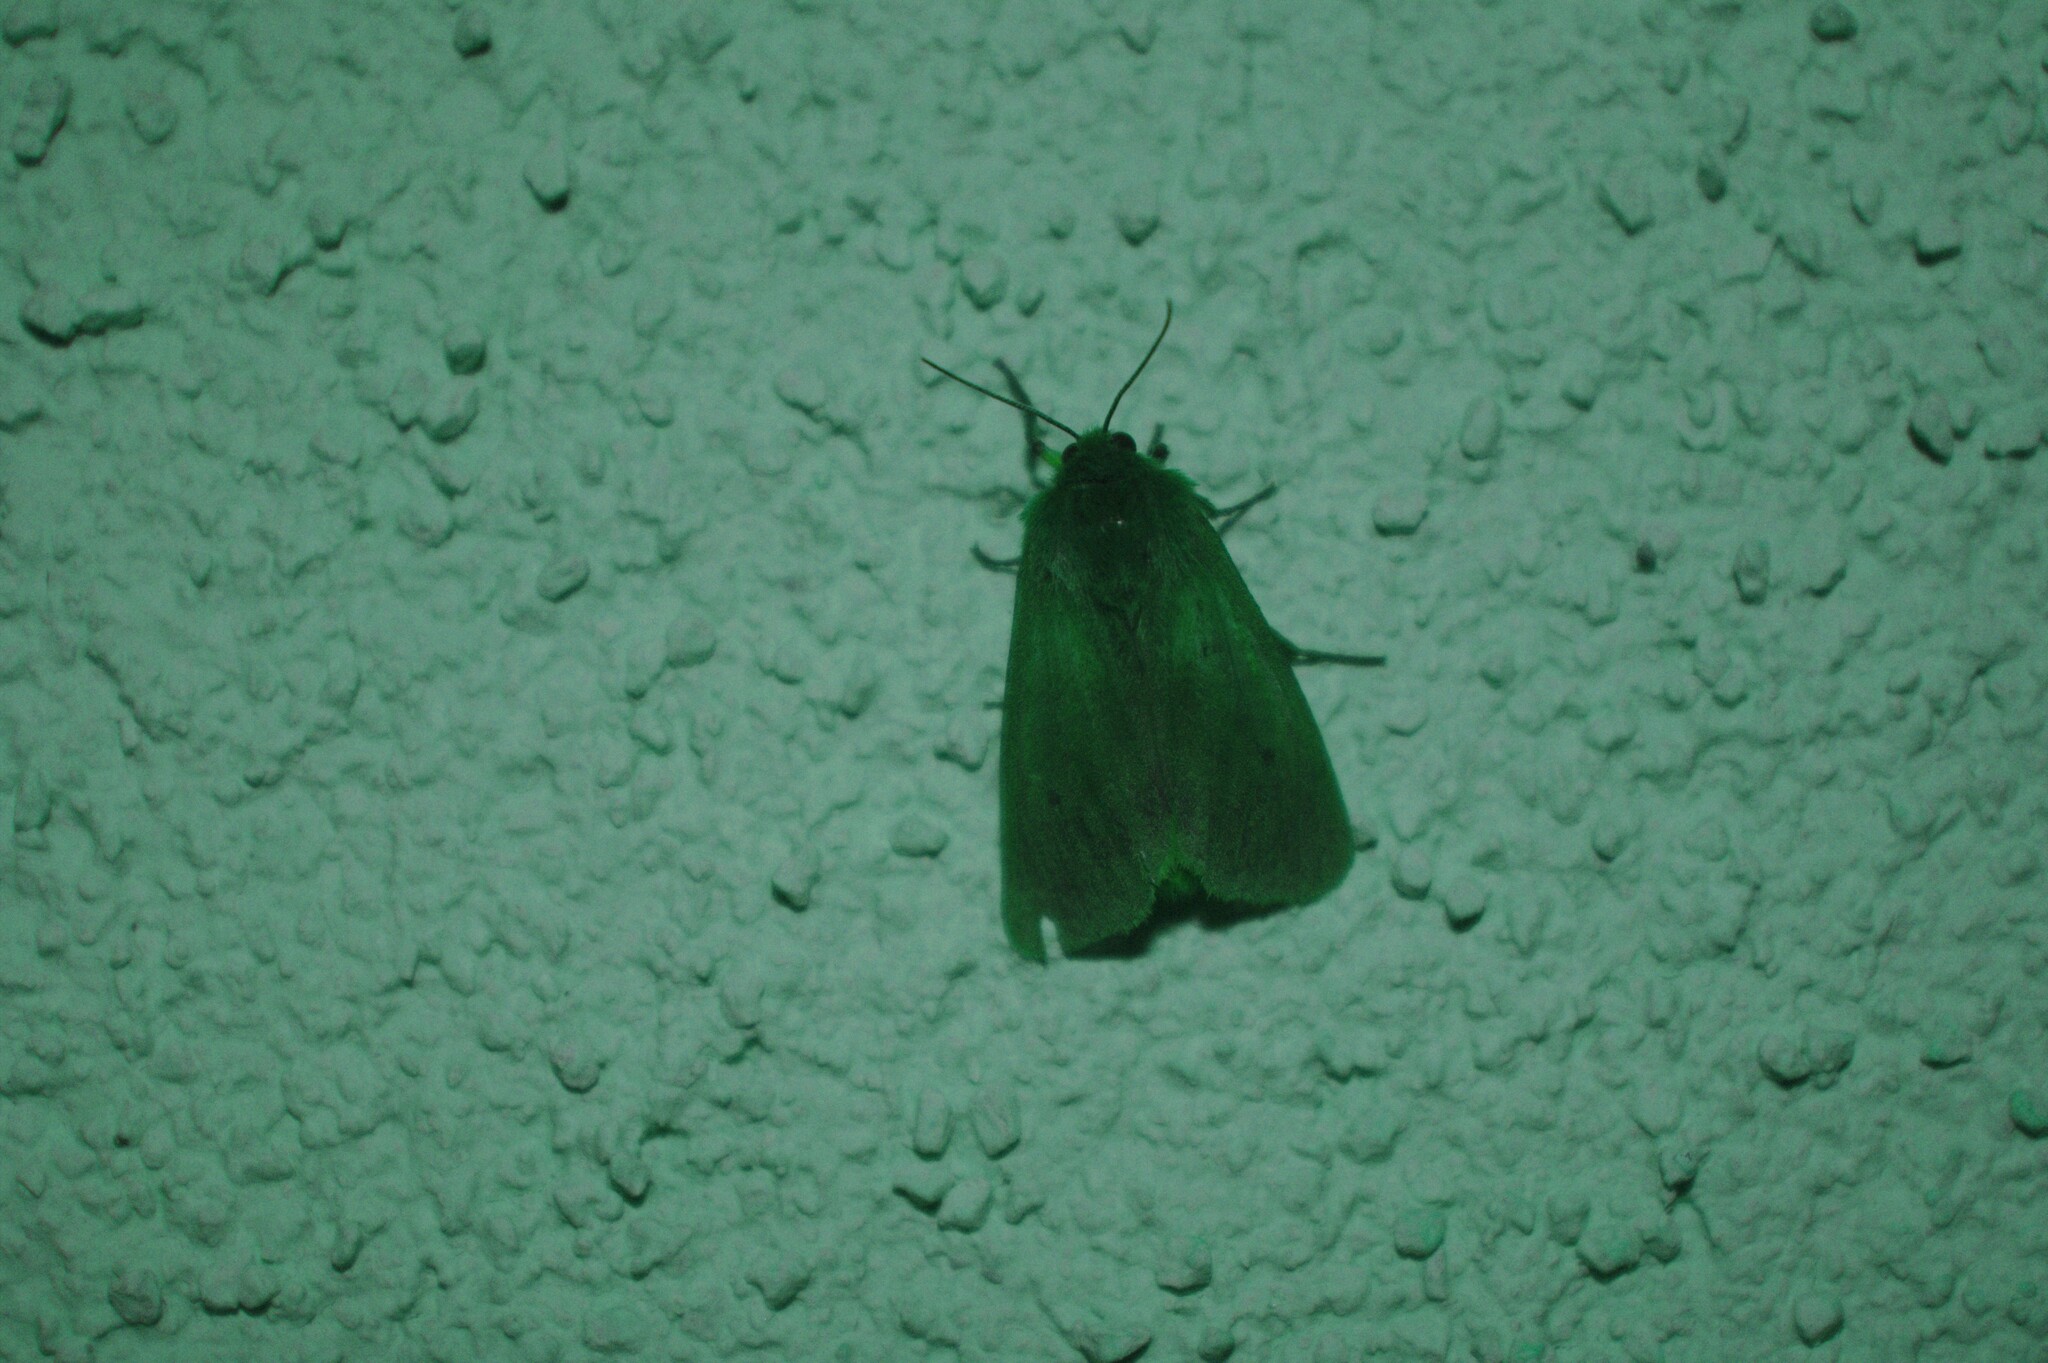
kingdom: Animalia
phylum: Arthropoda
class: Insecta
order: Lepidoptera
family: Erebidae
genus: Phragmatobia
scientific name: Phragmatobia fuliginosa
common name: Ruby tiger
